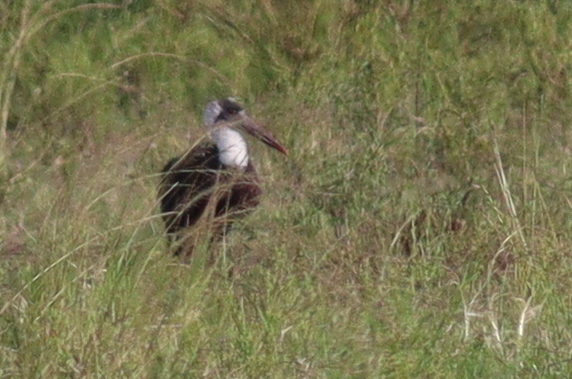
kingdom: Animalia
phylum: Chordata
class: Aves
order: Ciconiiformes
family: Ciconiidae
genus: Ciconia
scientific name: Ciconia microscelis
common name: African woollyneck
